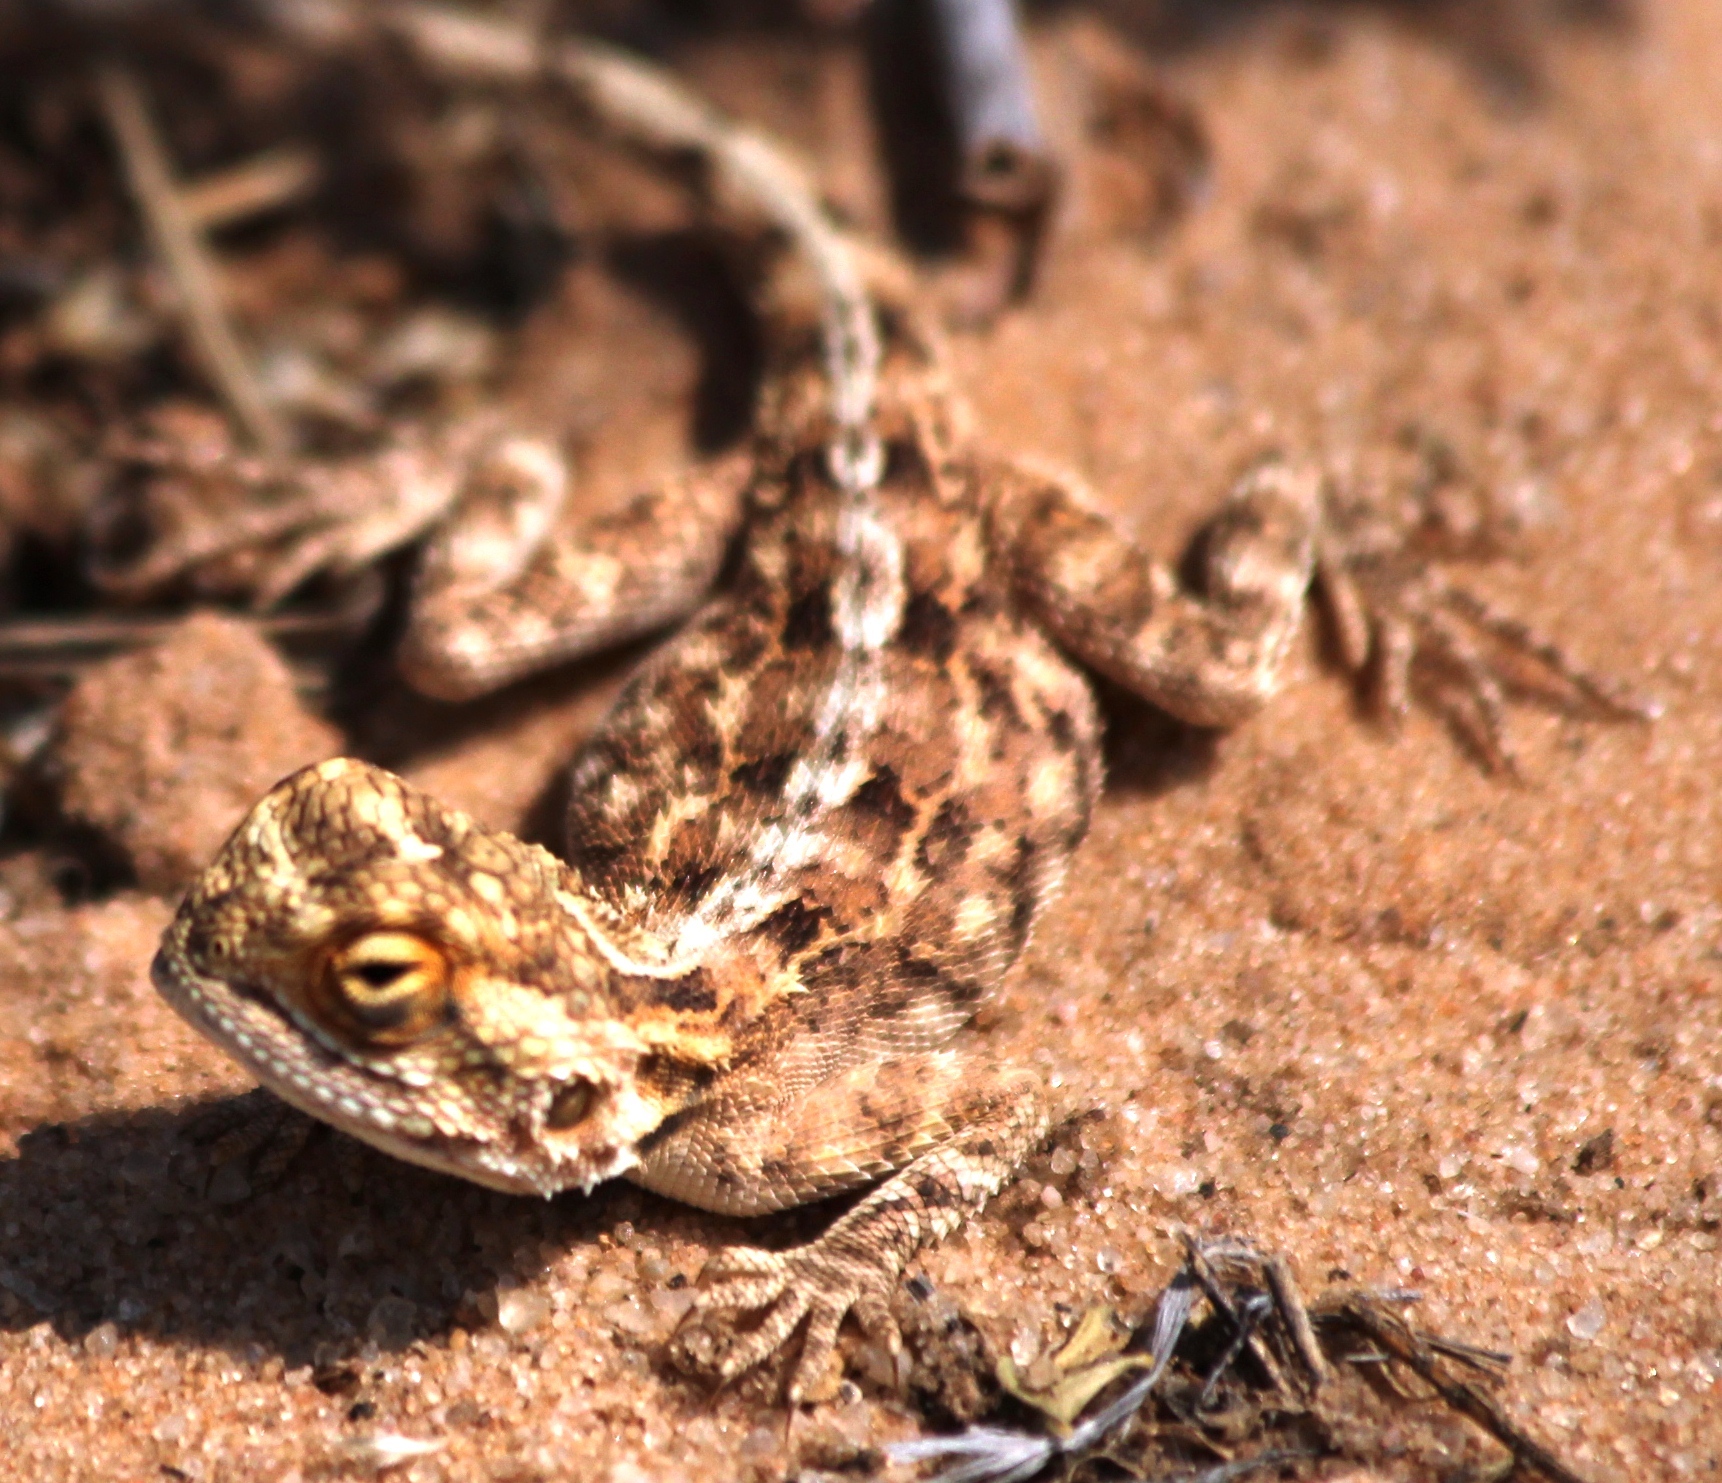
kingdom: Animalia
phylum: Chordata
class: Squamata
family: Agamidae
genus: Agama
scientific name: Agama aculeata
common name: Common ground agama
